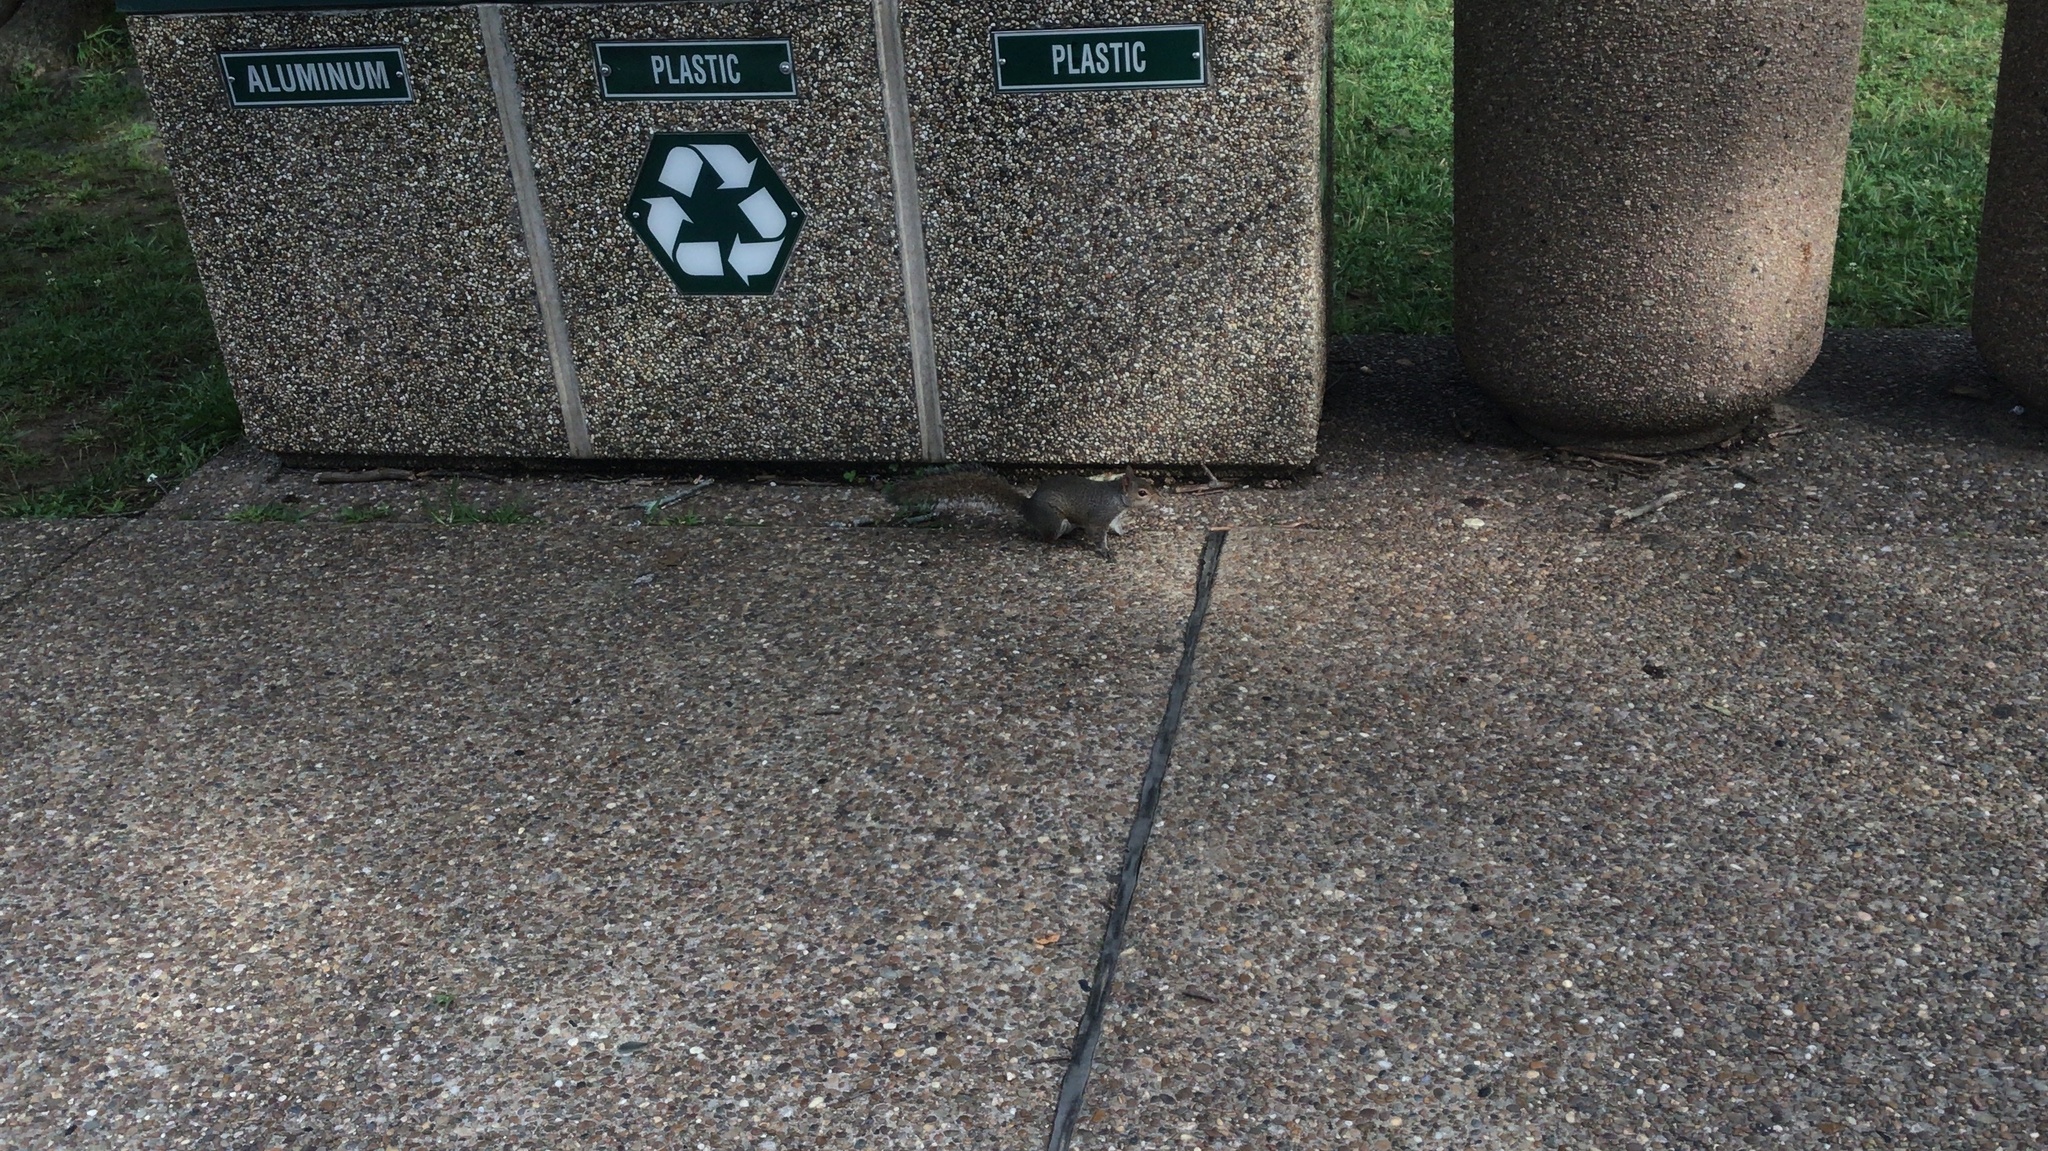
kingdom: Animalia
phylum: Chordata
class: Mammalia
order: Rodentia
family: Sciuridae
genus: Sciurus
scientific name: Sciurus carolinensis
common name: Eastern gray squirrel
